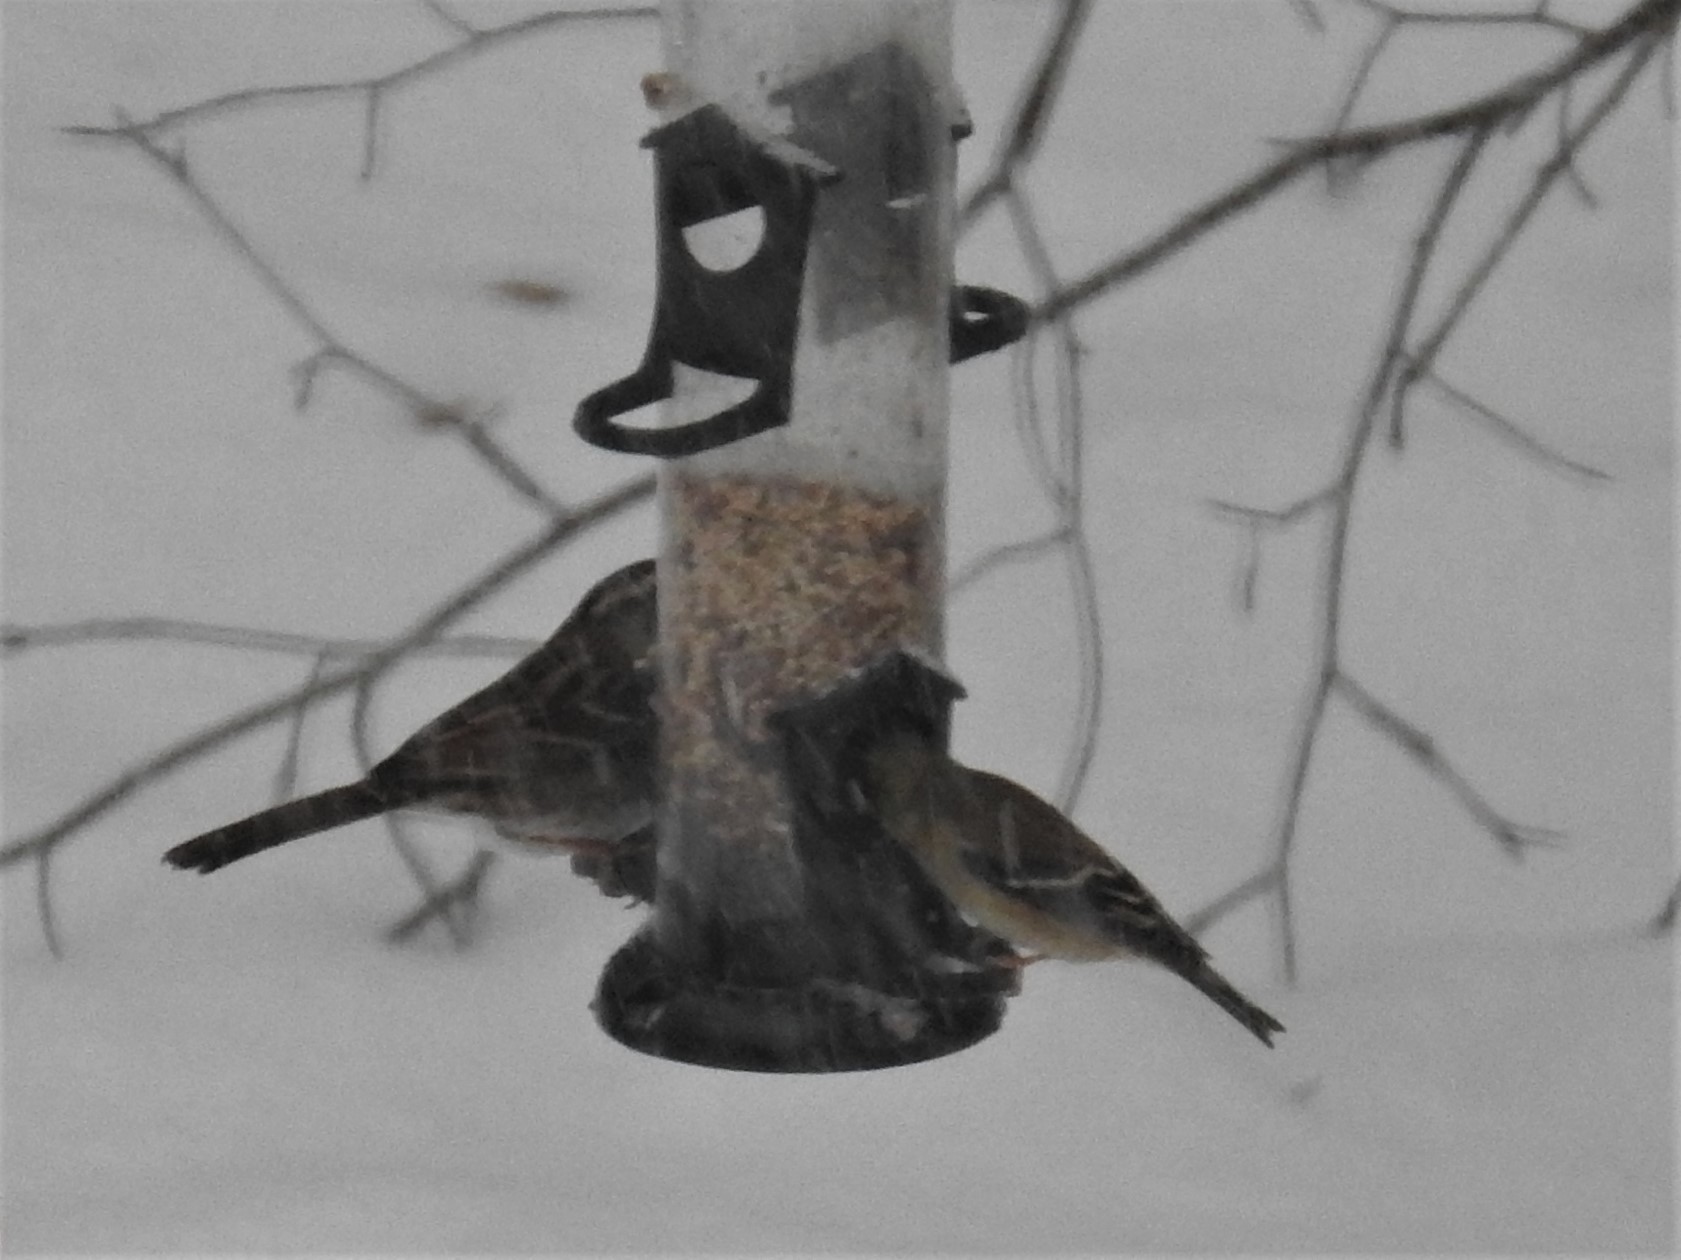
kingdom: Animalia
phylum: Chordata
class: Aves
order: Passeriformes
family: Fringillidae
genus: Spinus
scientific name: Spinus tristis
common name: American goldfinch
